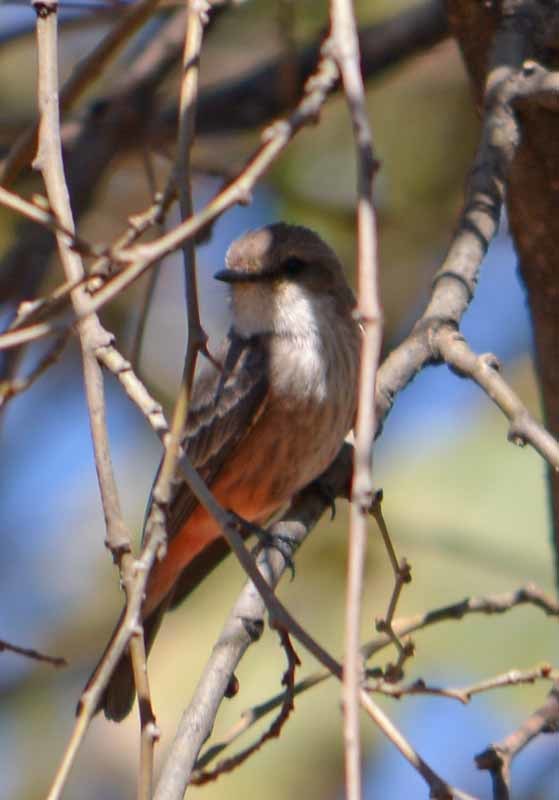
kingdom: Animalia
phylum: Chordata
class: Aves
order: Passeriformes
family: Tyrannidae
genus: Pyrocephalus
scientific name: Pyrocephalus rubinus
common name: Vermilion flycatcher
